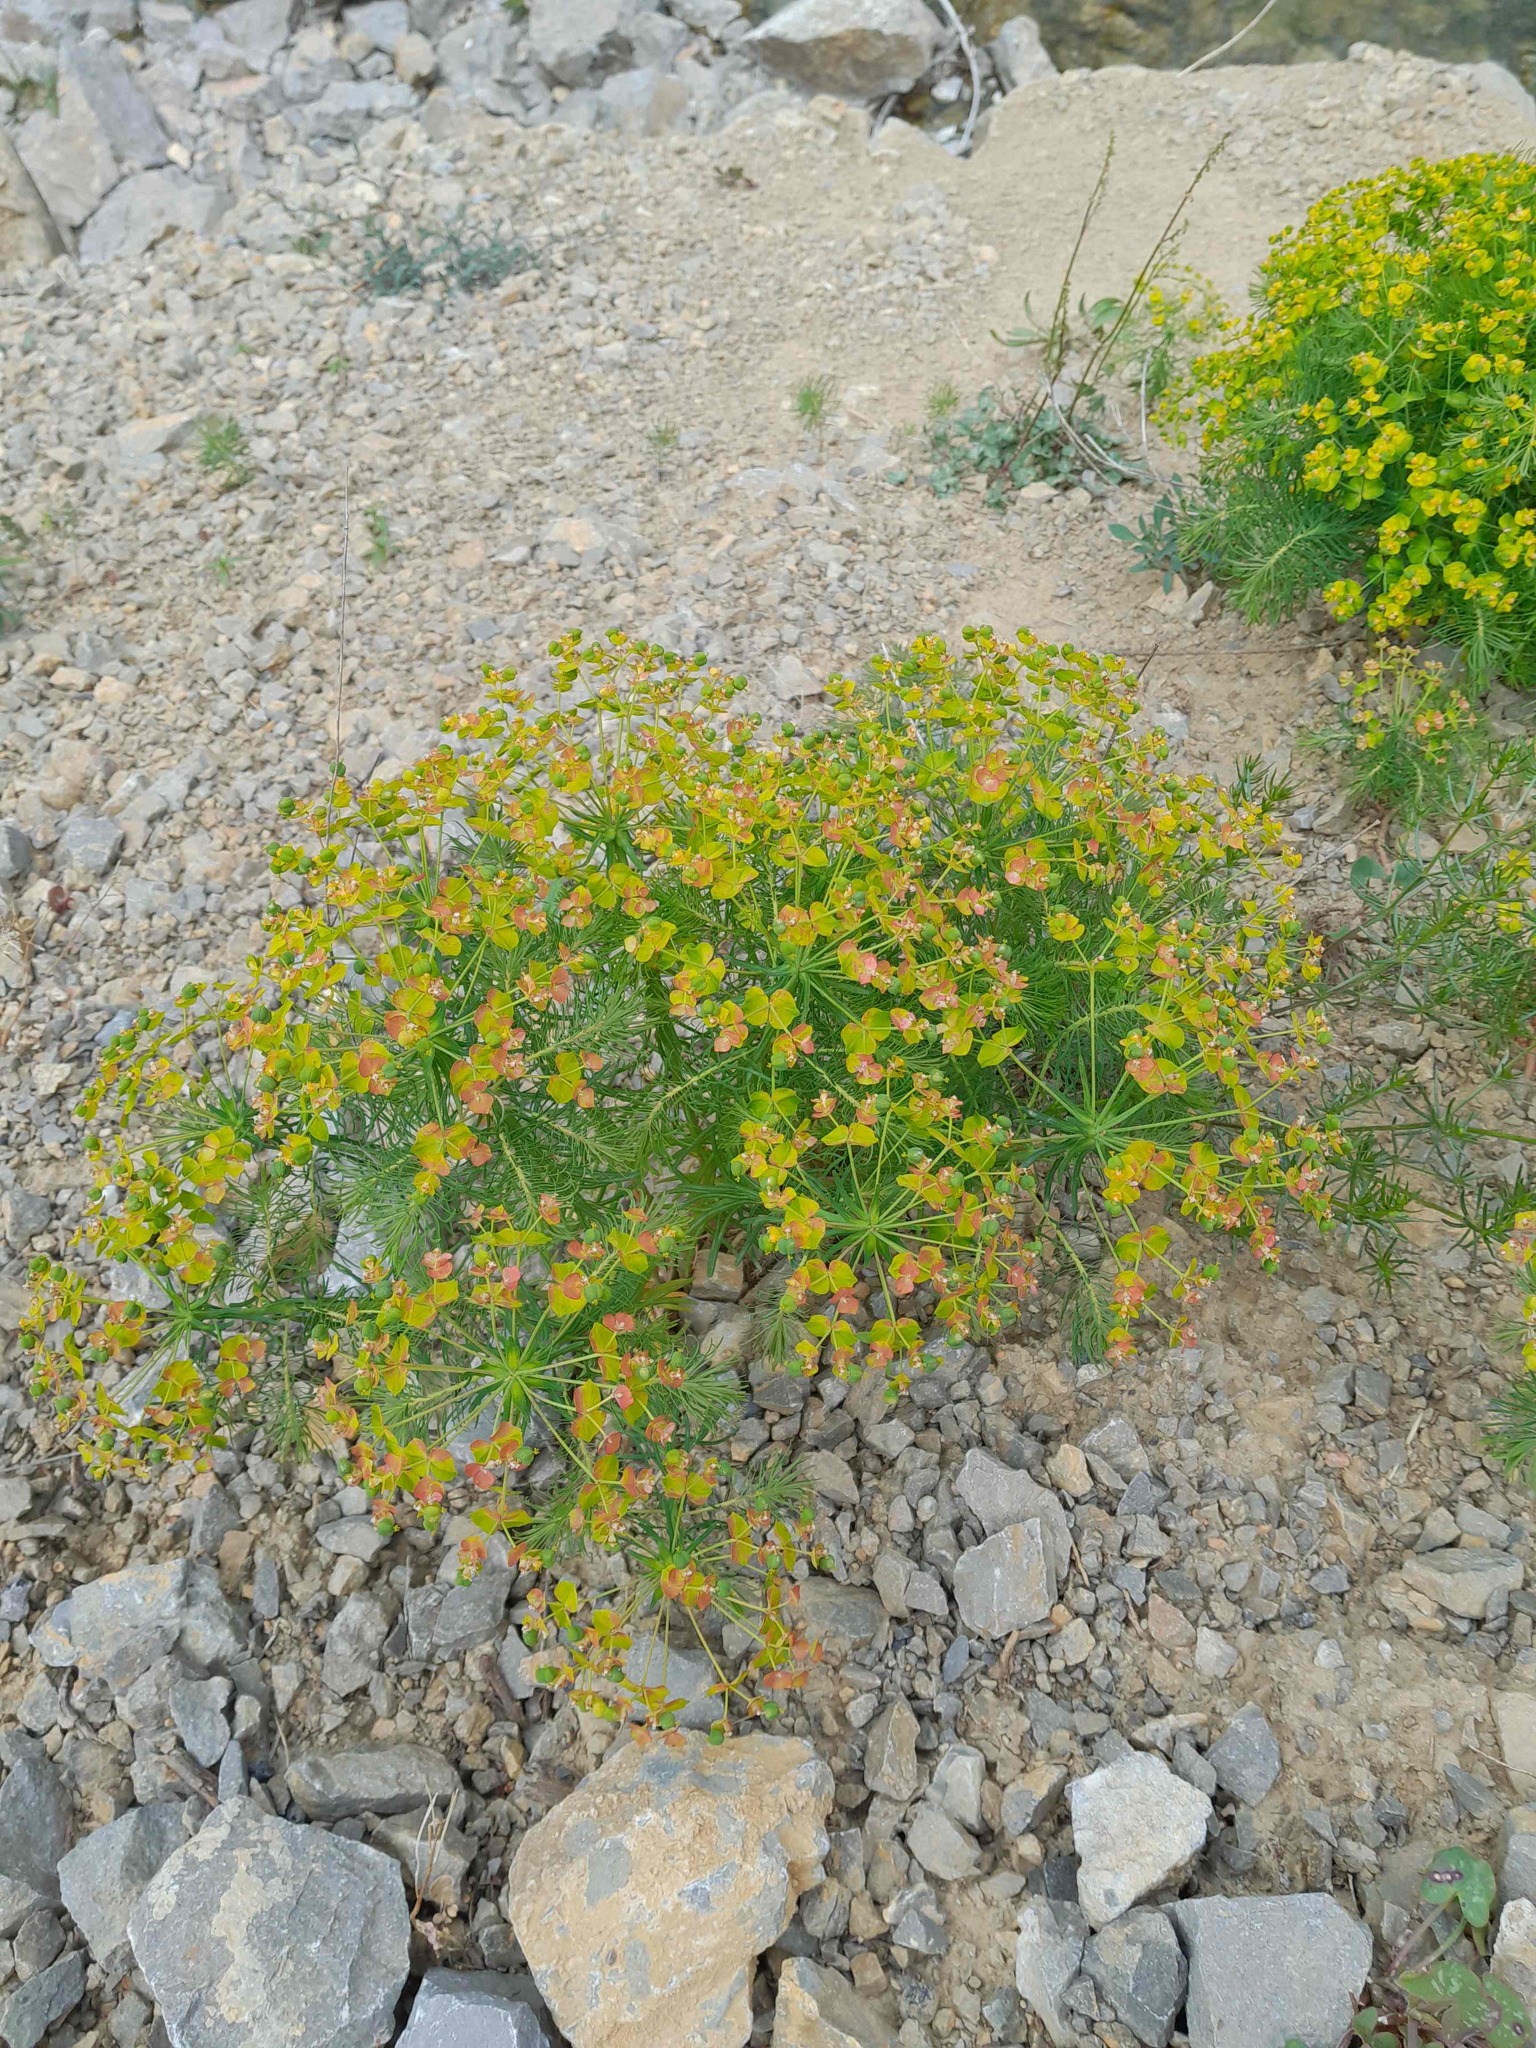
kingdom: Plantae
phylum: Tracheophyta
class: Magnoliopsida
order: Malpighiales
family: Euphorbiaceae
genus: Euphorbia
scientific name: Euphorbia cyparissias
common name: Cypress spurge
